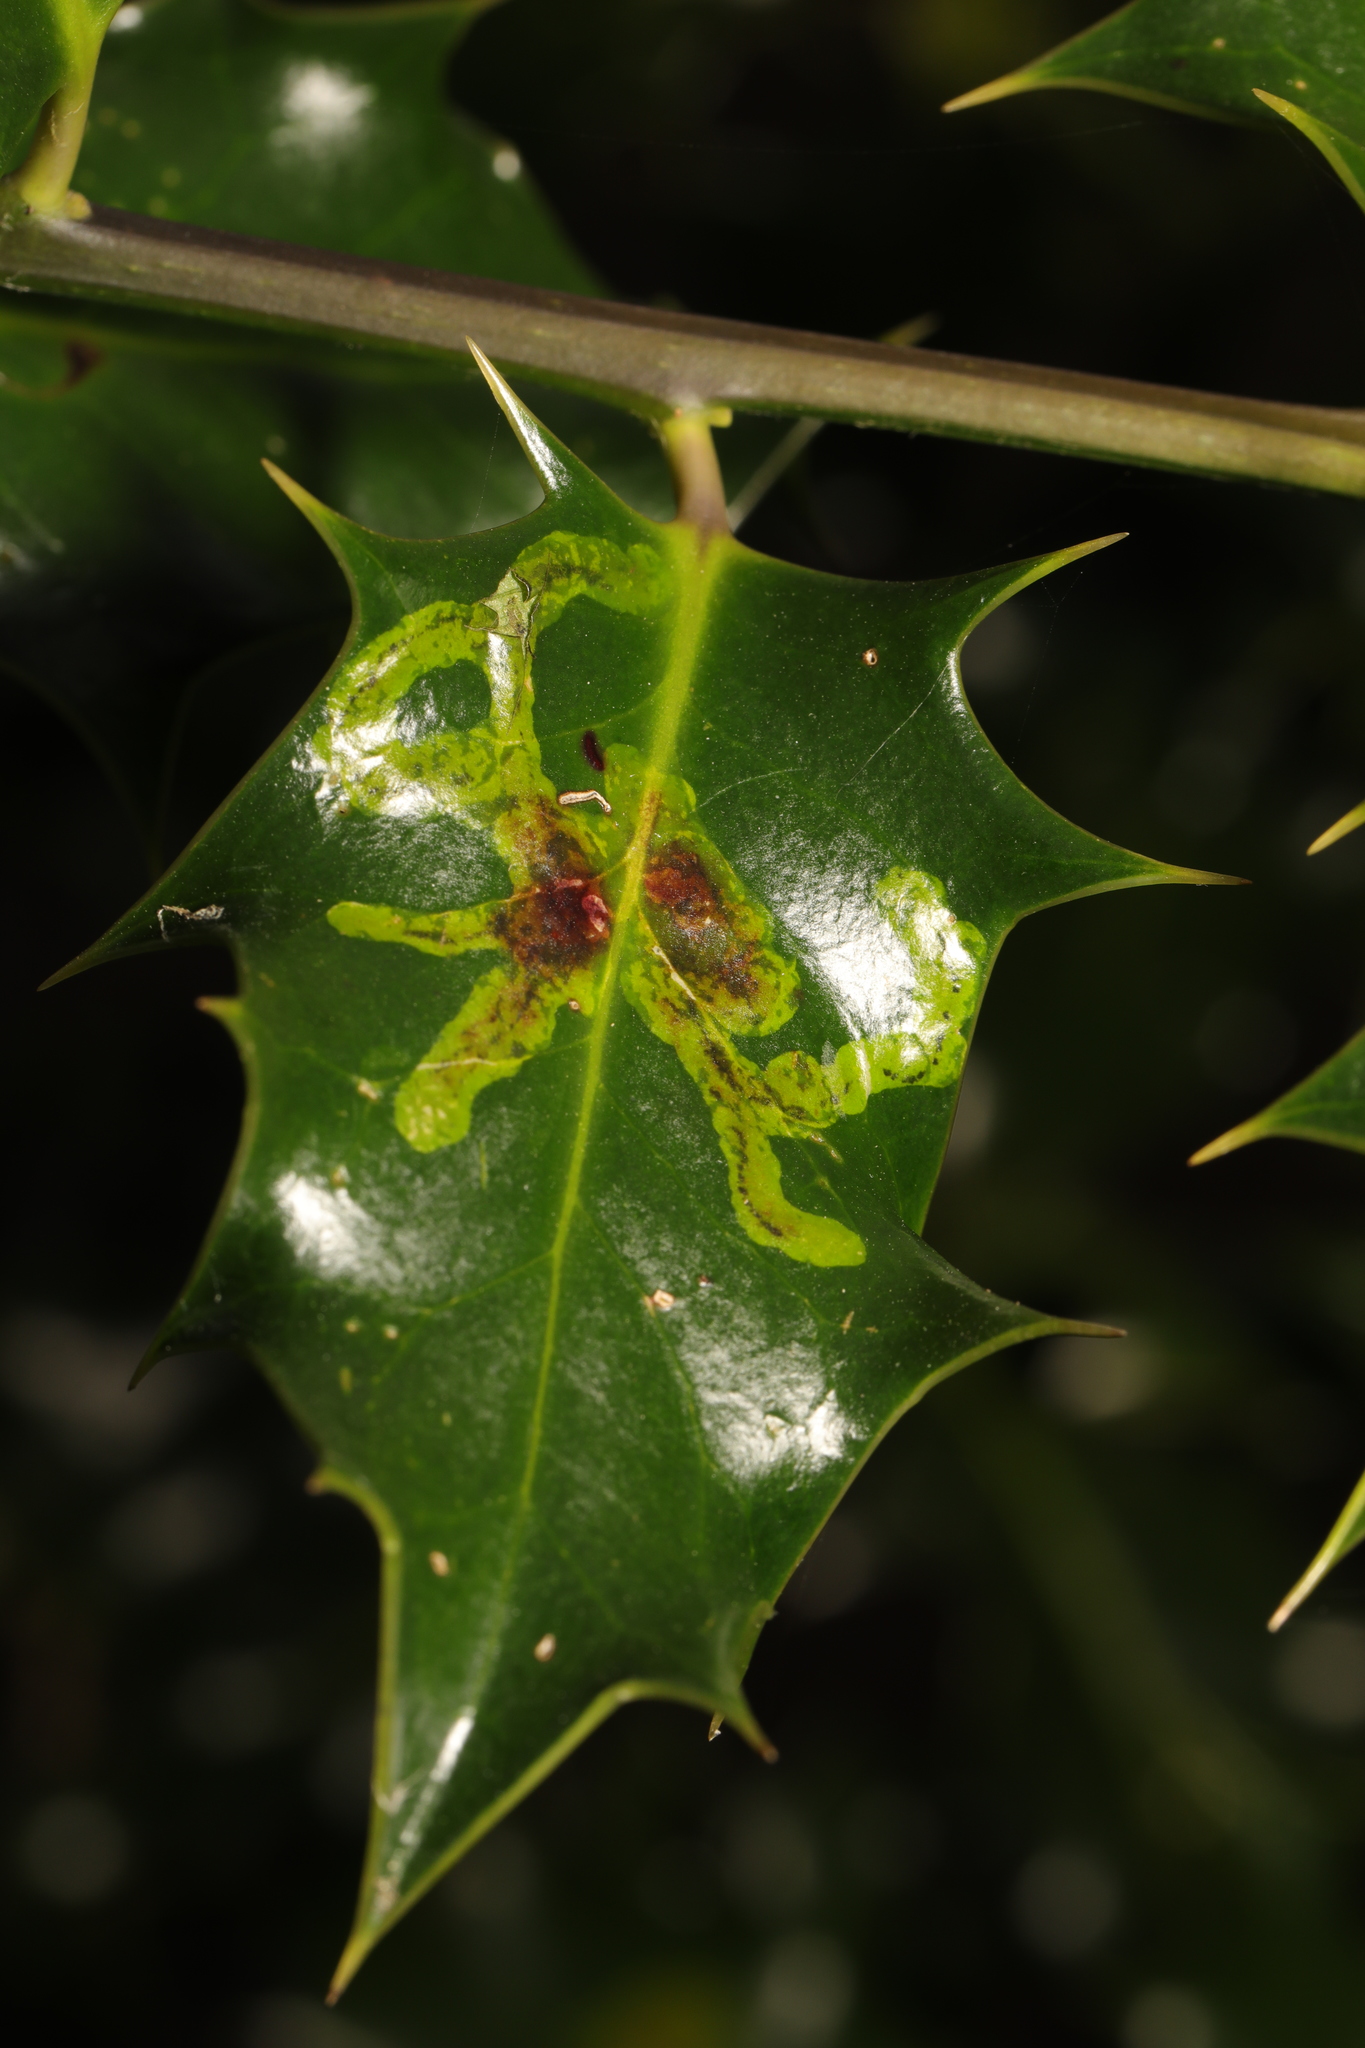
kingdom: Animalia
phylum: Arthropoda
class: Insecta
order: Diptera
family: Agromyzidae
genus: Phytomyza
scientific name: Phytomyza ilicis
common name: Holly leafminer
